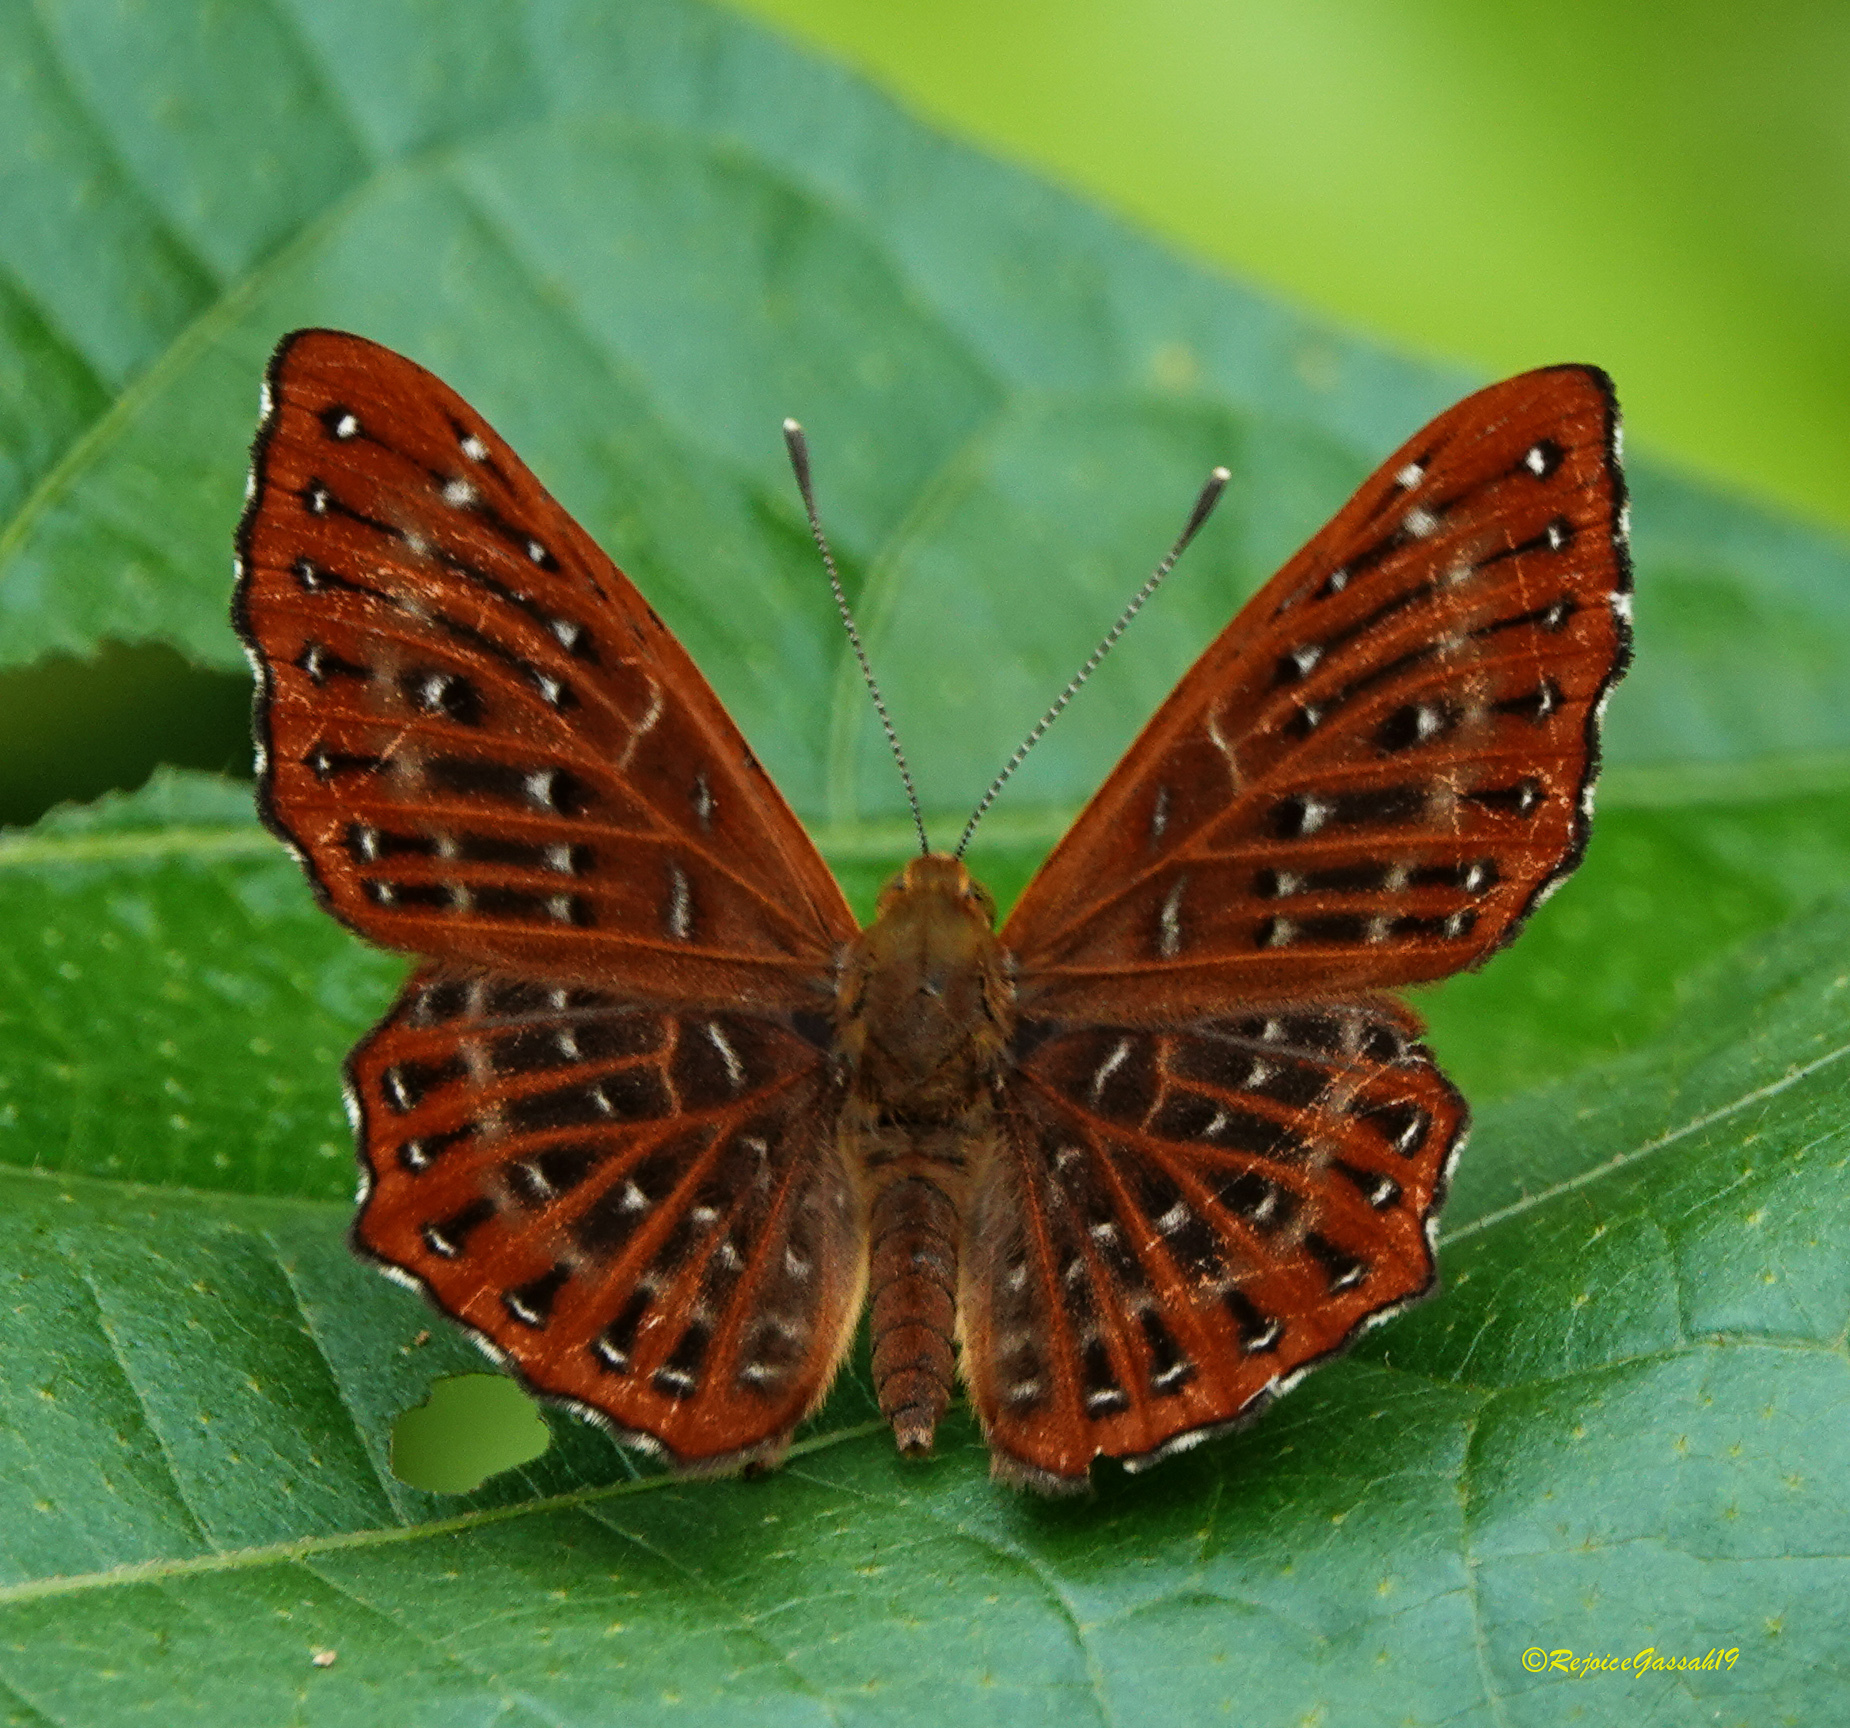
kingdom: Animalia
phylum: Arthropoda
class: Insecta
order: Lepidoptera
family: Riodinidae
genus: Zemeros
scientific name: Zemeros flegyas
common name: Punchinello
